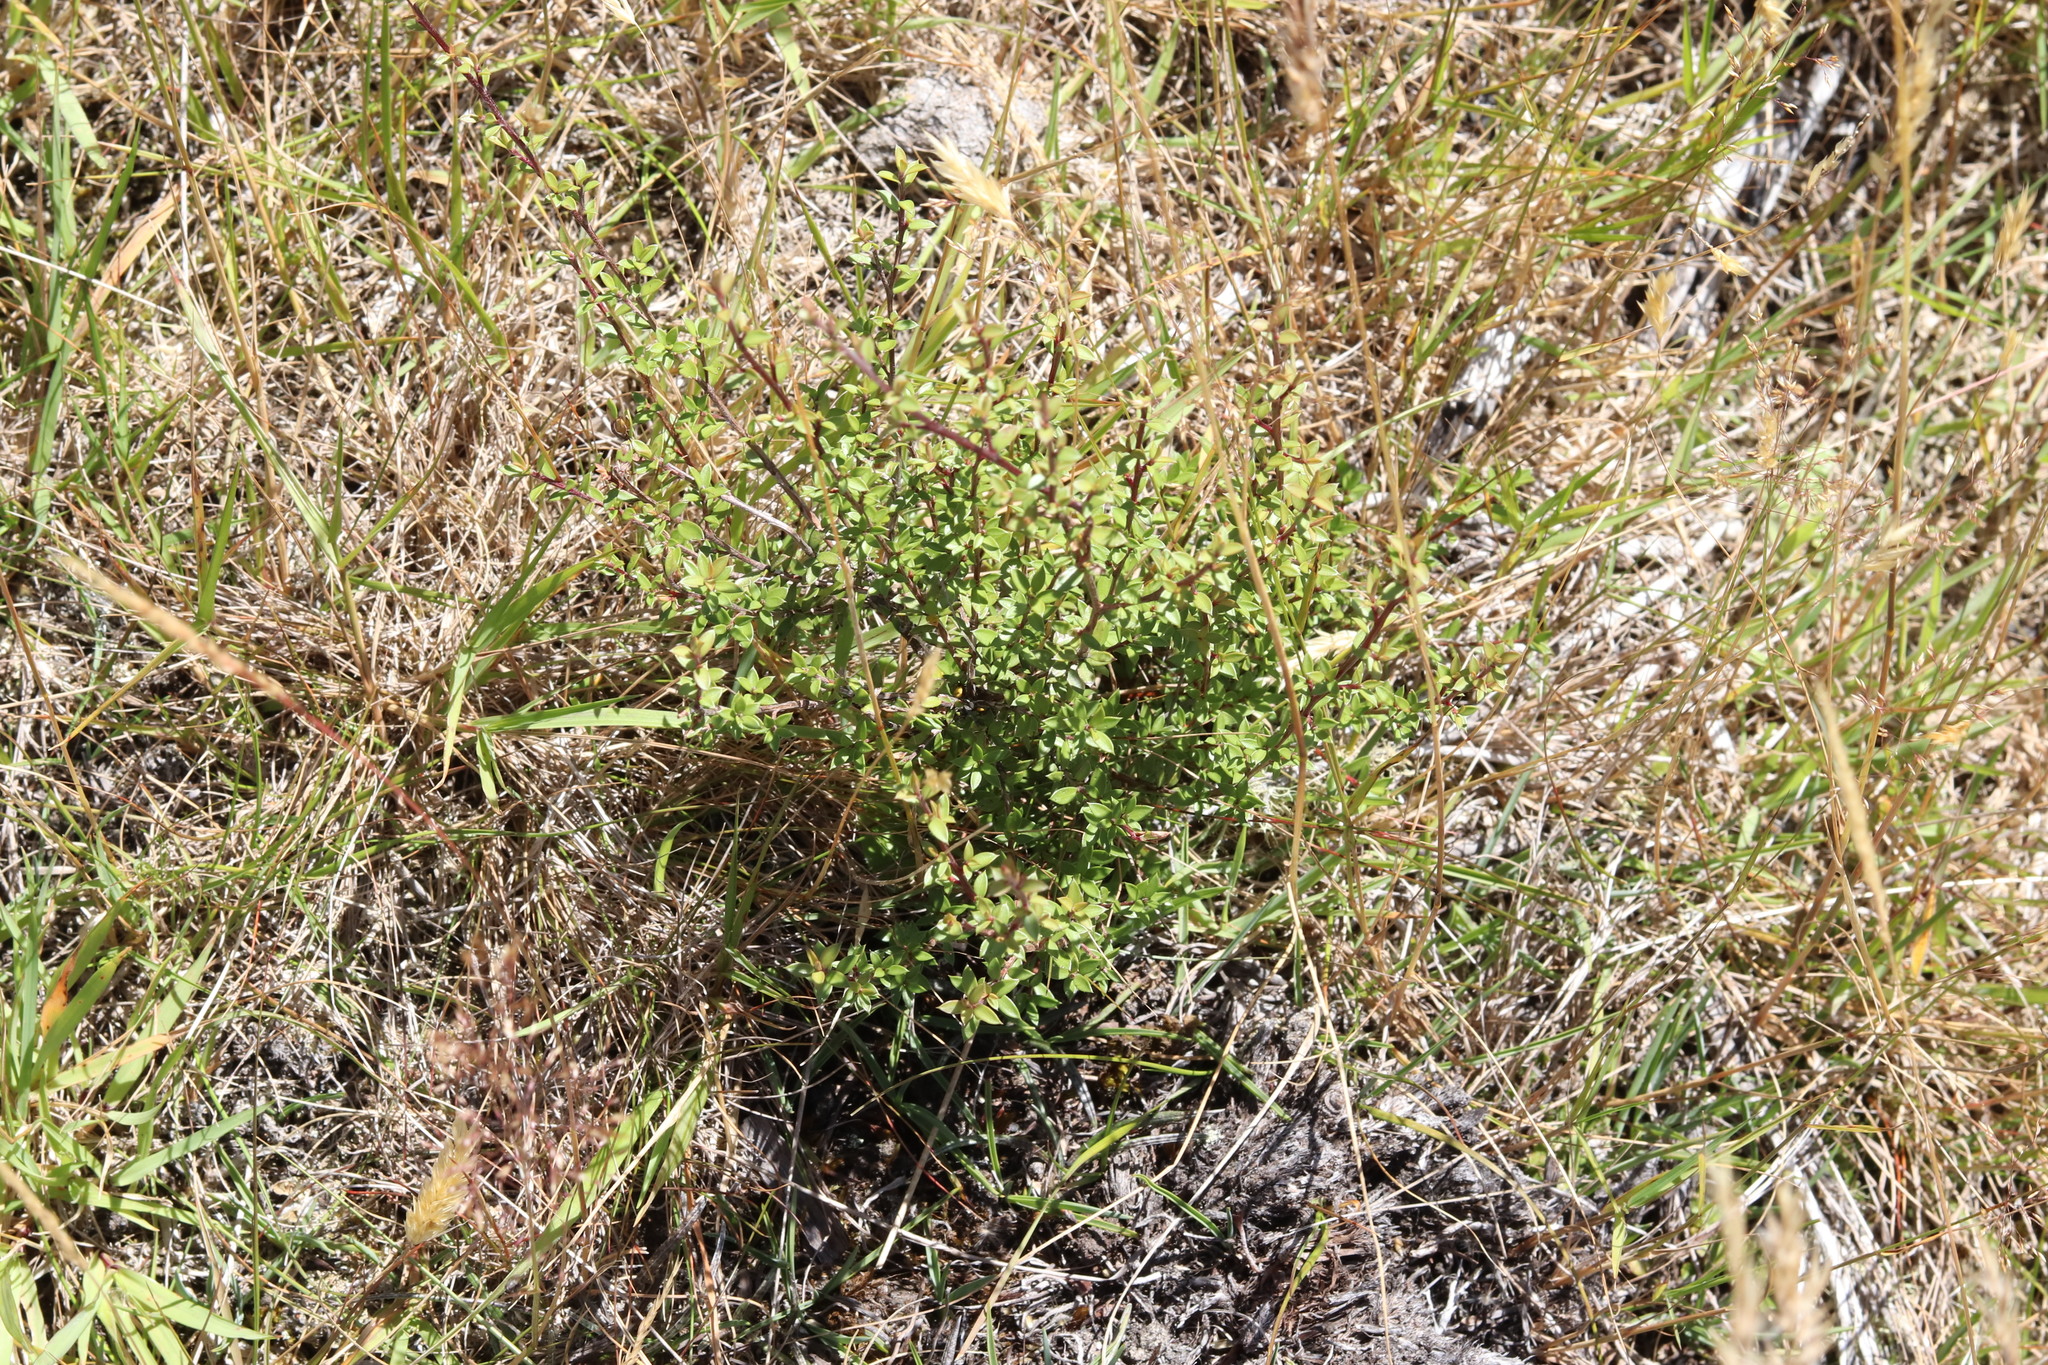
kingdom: Plantae
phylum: Tracheophyta
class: Magnoliopsida
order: Myrtales
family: Myrtaceae
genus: Leptospermum
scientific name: Leptospermum scoparium
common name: Broom tea-tree
